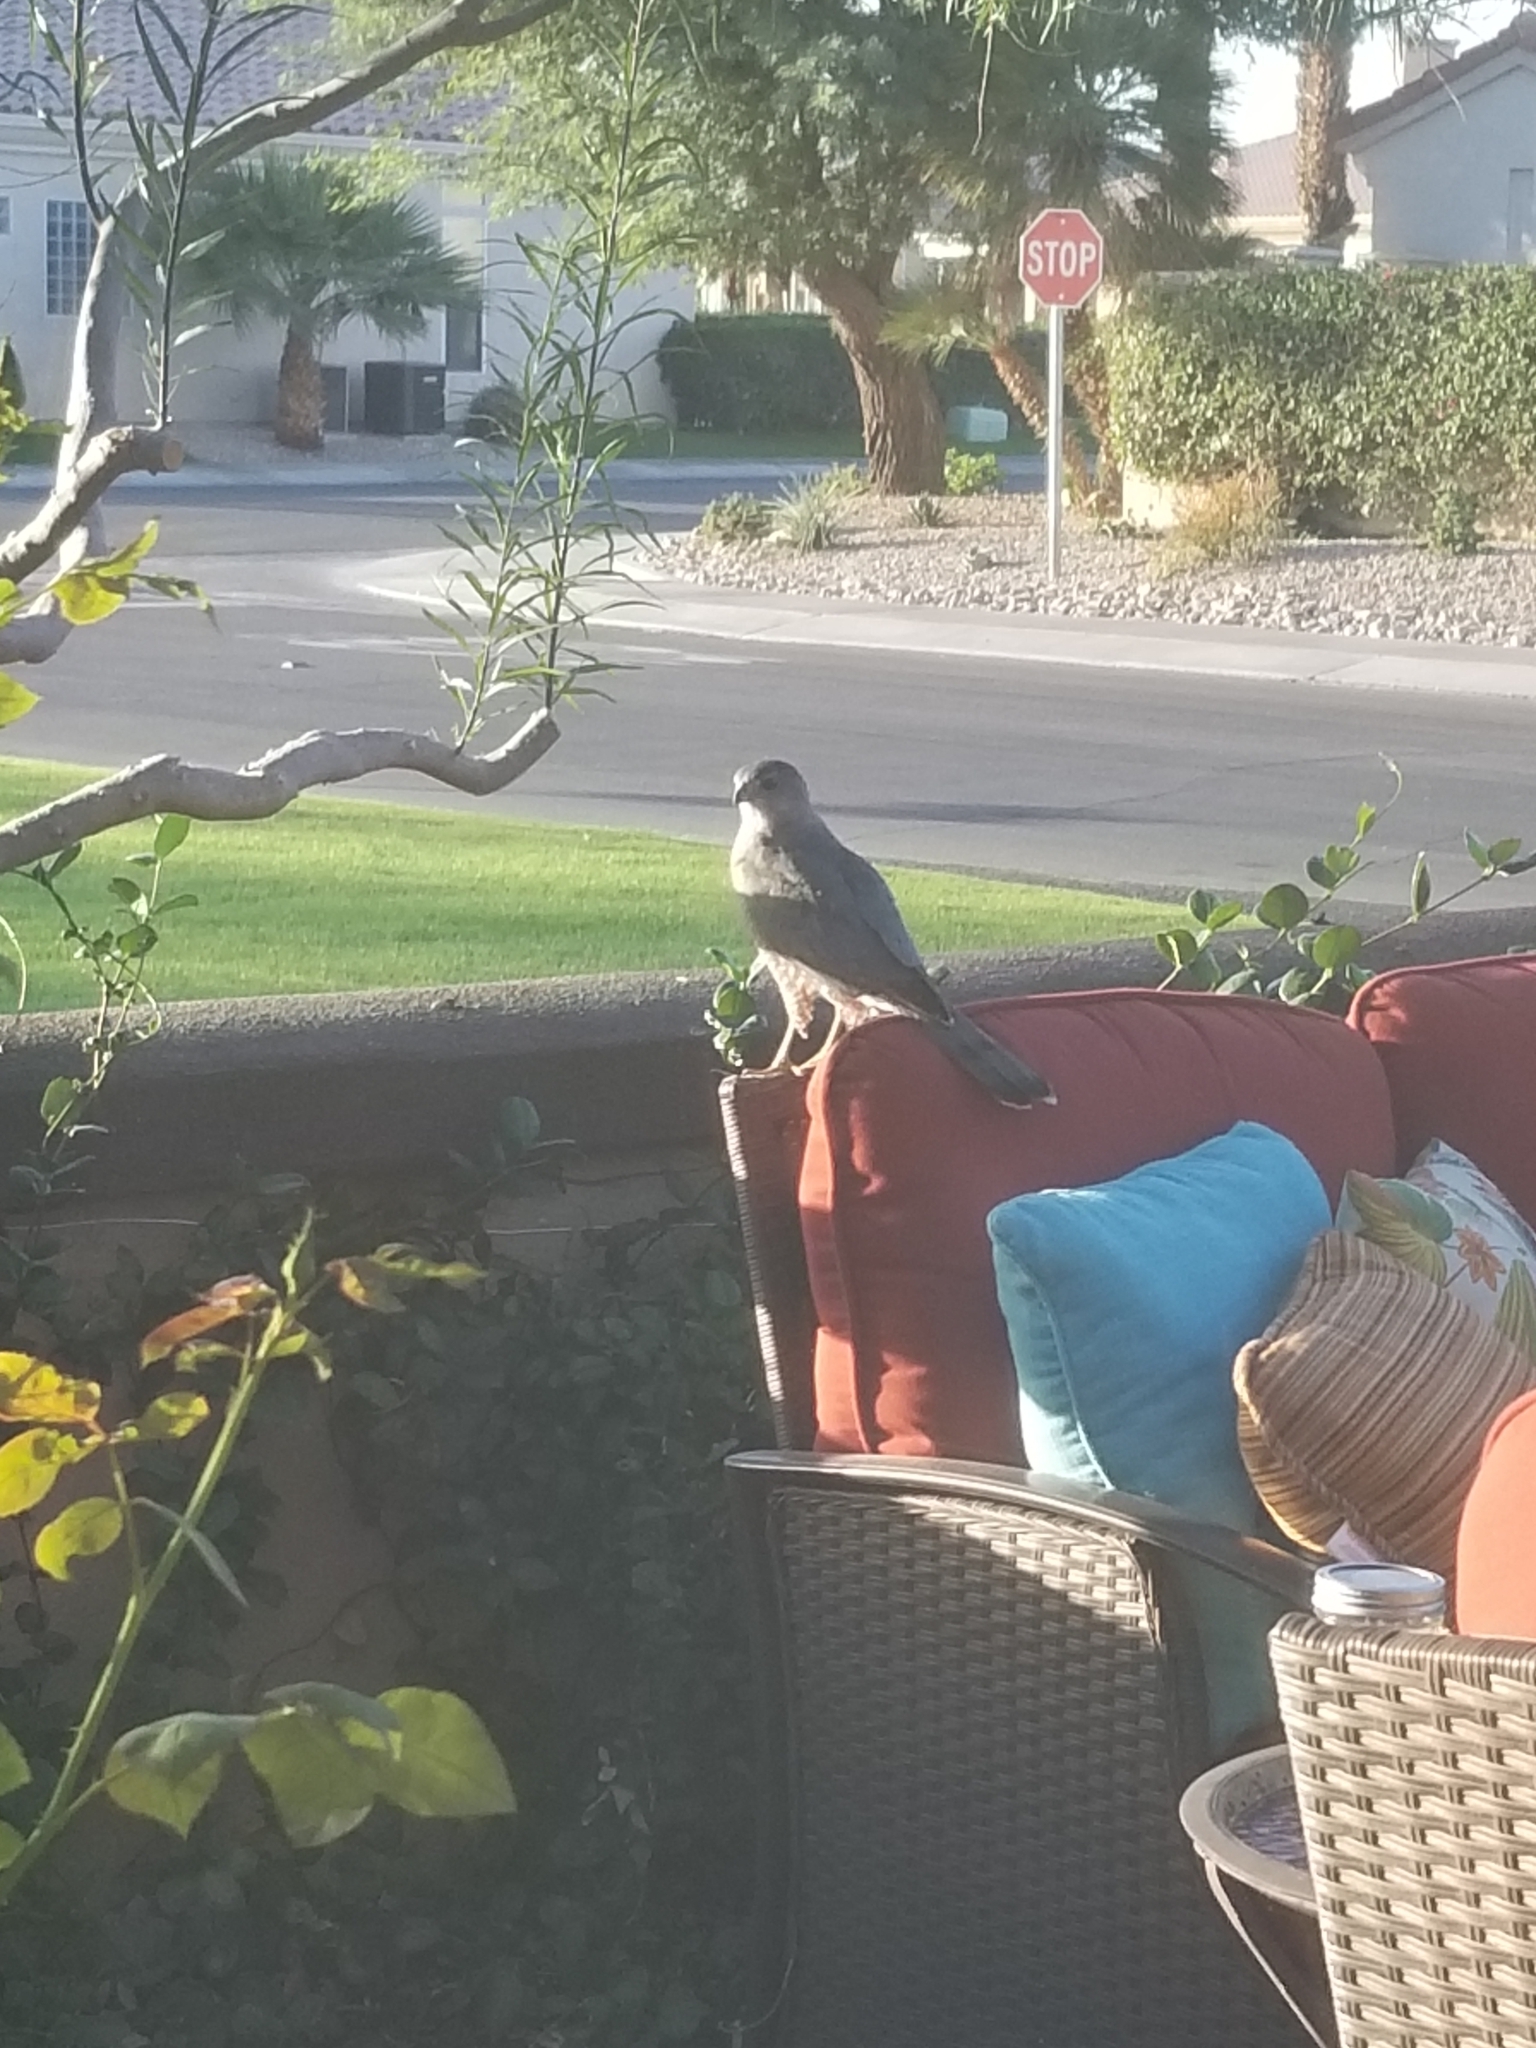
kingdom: Animalia
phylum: Chordata
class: Aves
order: Accipitriformes
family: Accipitridae
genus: Accipiter
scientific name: Accipiter cooperii
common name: Cooper's hawk
